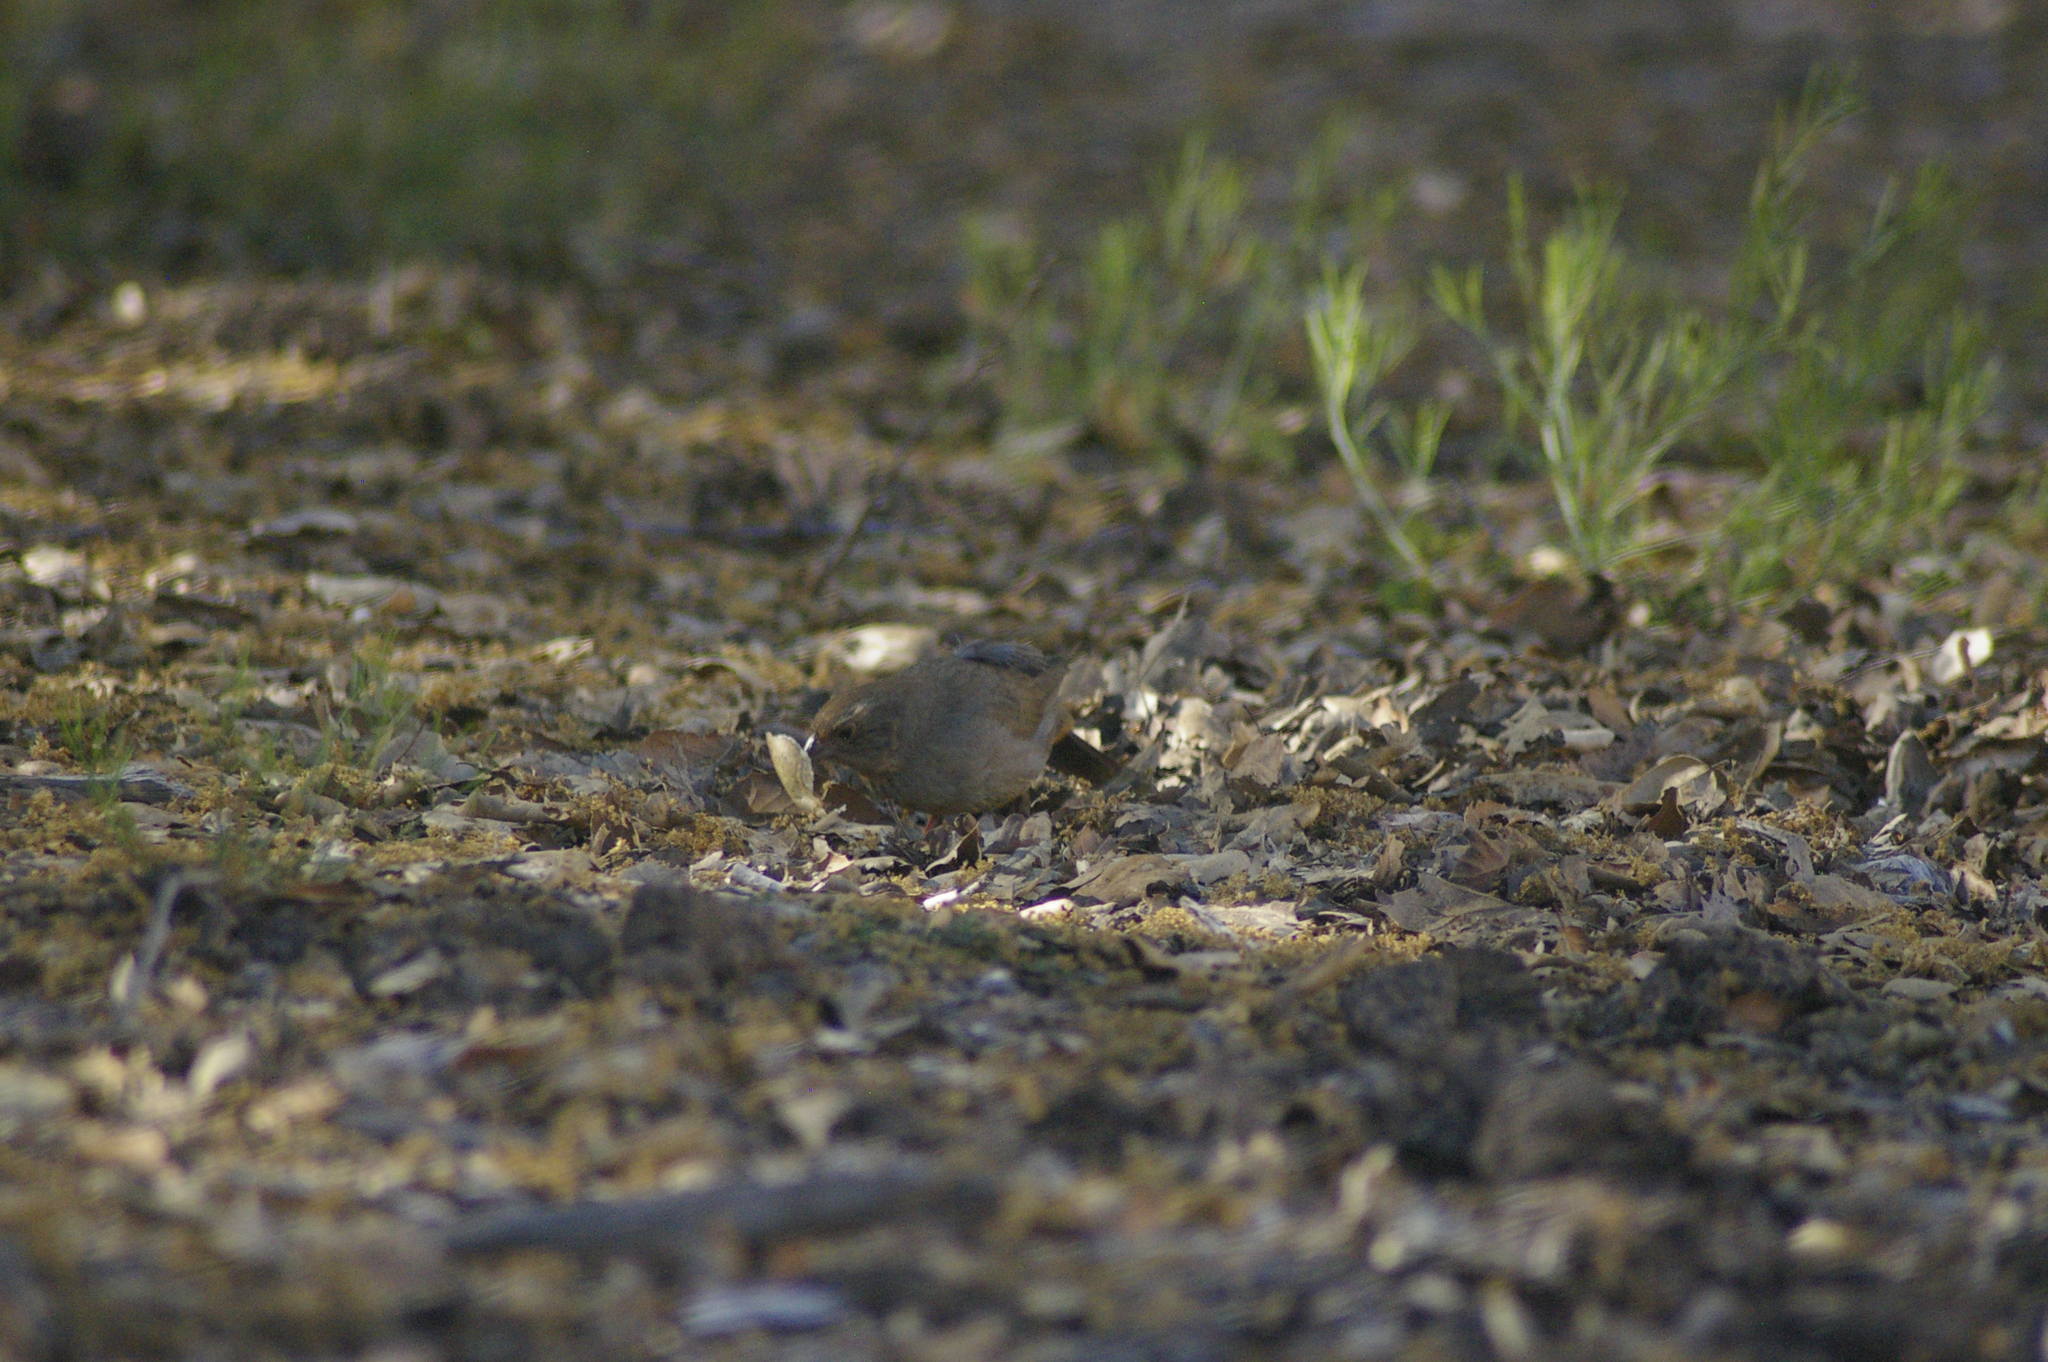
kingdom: Animalia
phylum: Chordata
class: Aves
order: Passeriformes
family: Passerellidae
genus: Melozone
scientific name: Melozone crissalis
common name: California towhee
